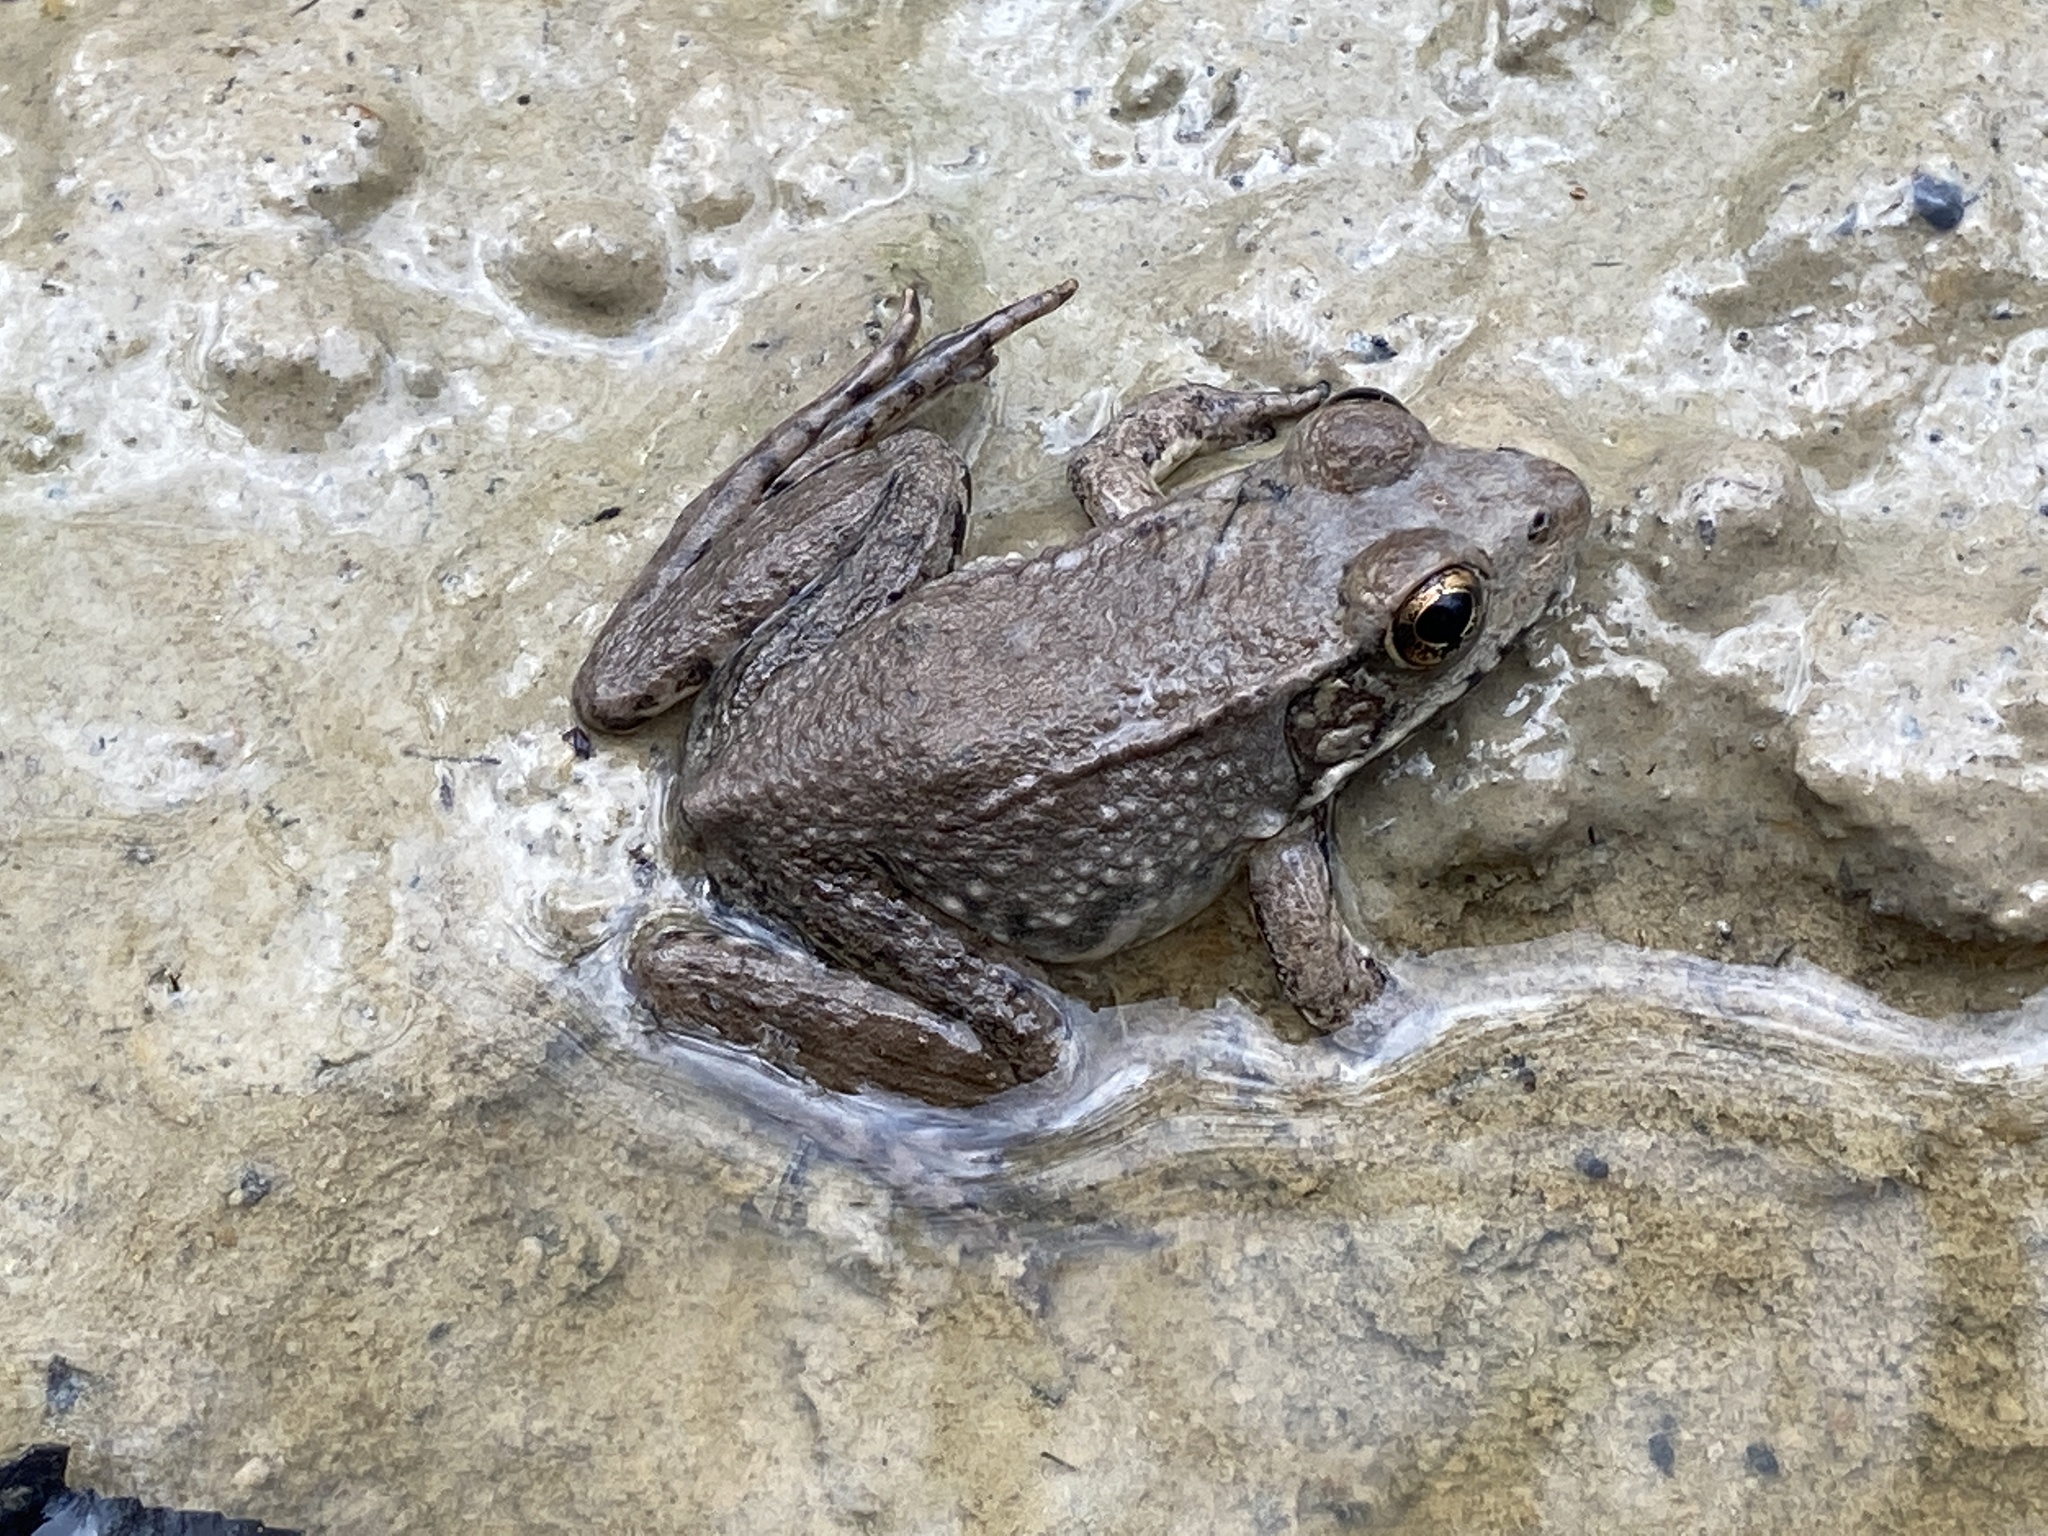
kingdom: Animalia
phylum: Chordata
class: Amphibia
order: Anura
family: Ranidae
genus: Lithobates
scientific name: Lithobates clamitans
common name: Green frog
